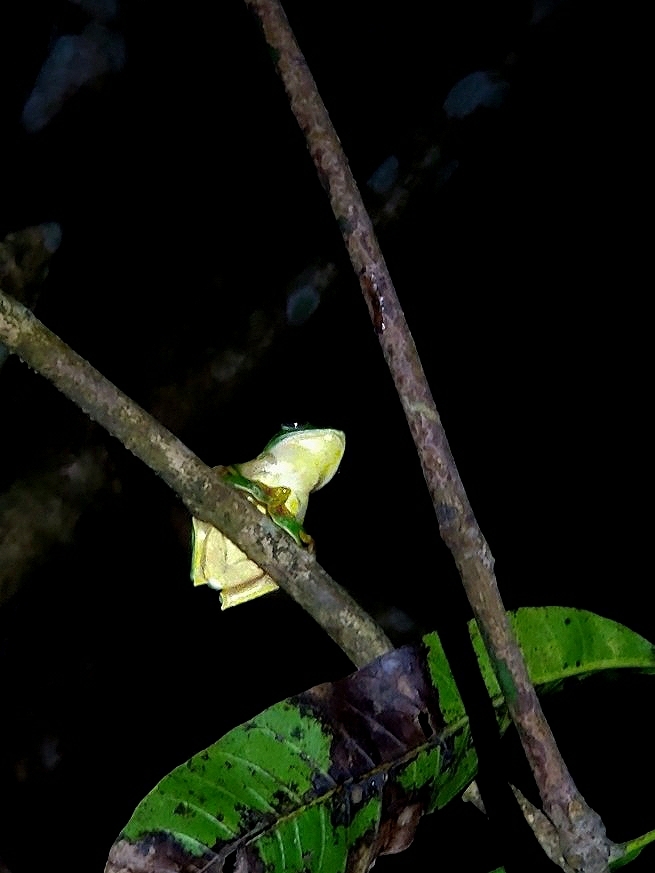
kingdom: Animalia
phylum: Chordata
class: Amphibia
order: Anura
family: Rhacophoridae
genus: Rhacophorus
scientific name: Rhacophorus malabaricus
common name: Malabar gliding frog
